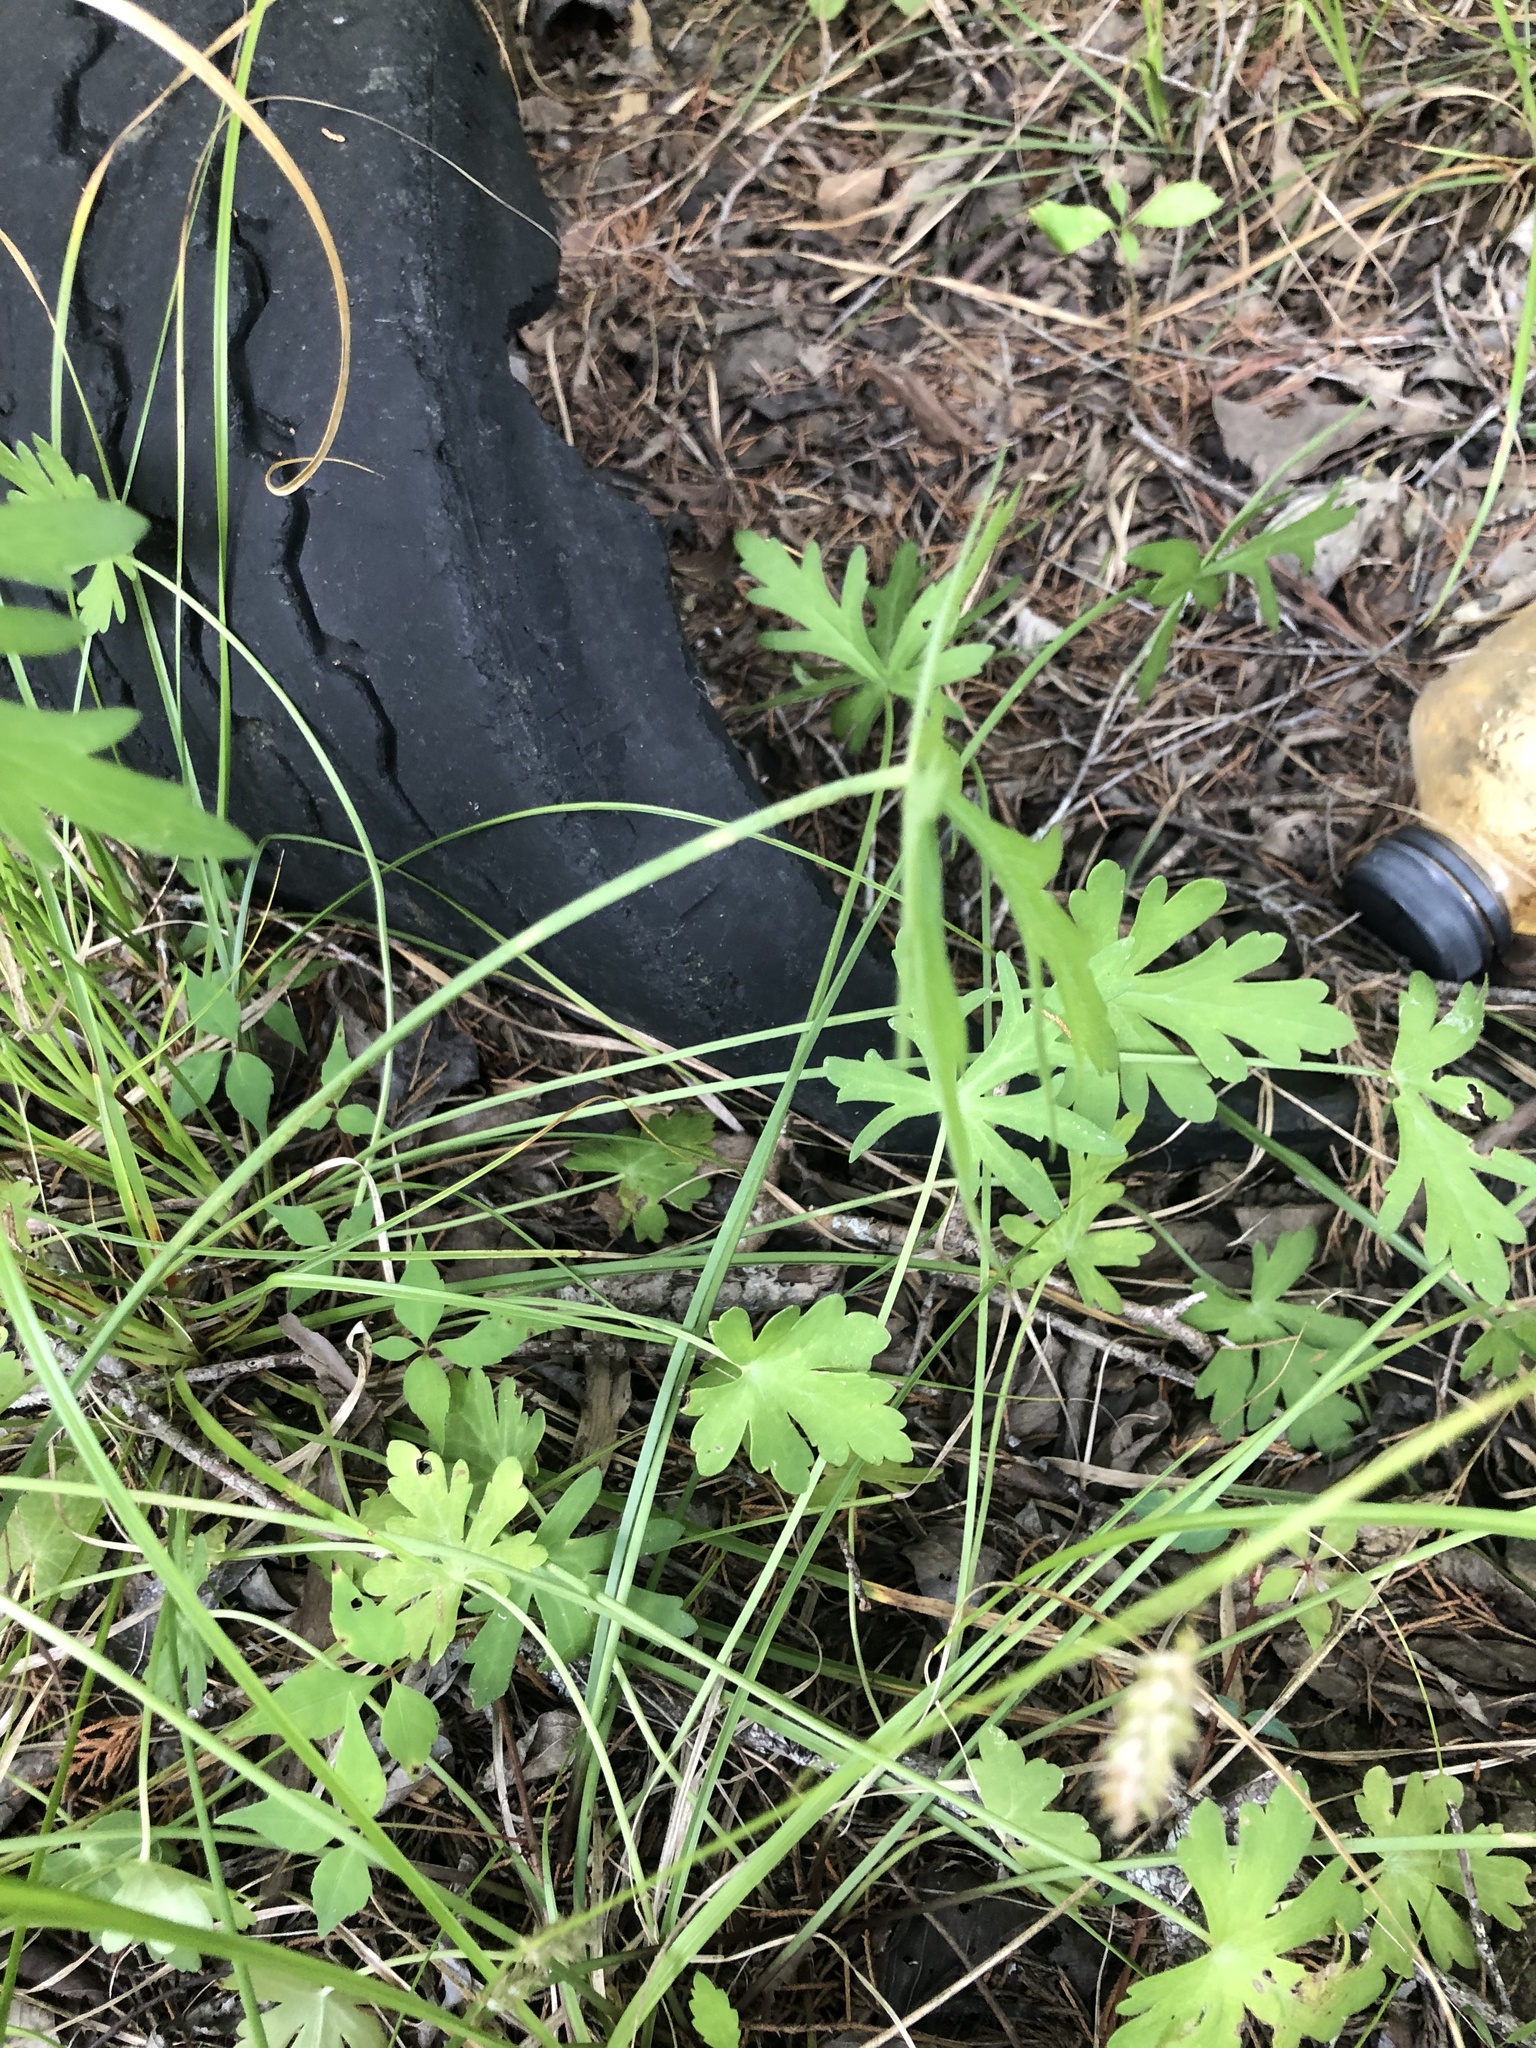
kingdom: Plantae
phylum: Tracheophyta
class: Magnoliopsida
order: Malvales
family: Malvaceae
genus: Callirhoe
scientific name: Callirhoe papaver
